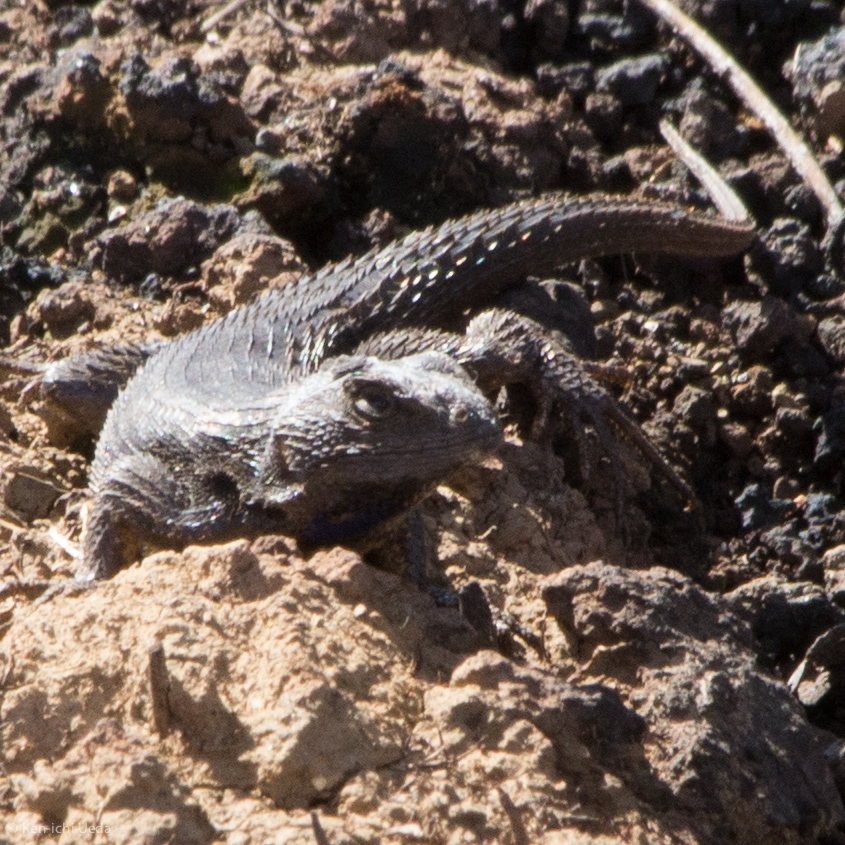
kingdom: Animalia
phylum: Chordata
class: Squamata
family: Phrynosomatidae
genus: Sceloporus
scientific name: Sceloporus occidentalis
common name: Western fence lizard
